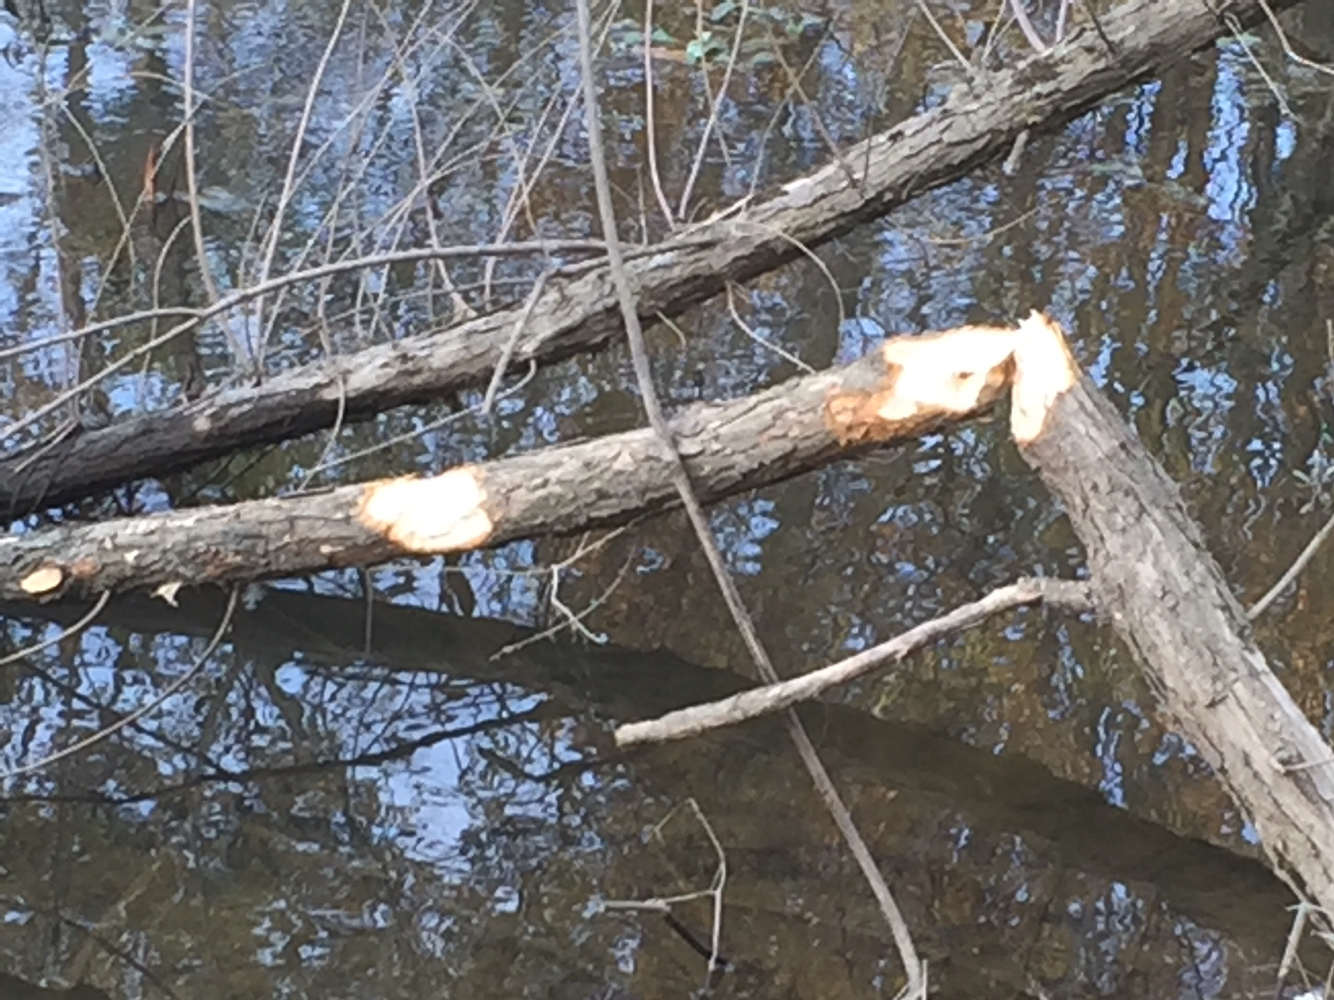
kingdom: Animalia
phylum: Chordata
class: Mammalia
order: Rodentia
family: Castoridae
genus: Castor
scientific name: Castor canadensis
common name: American beaver
